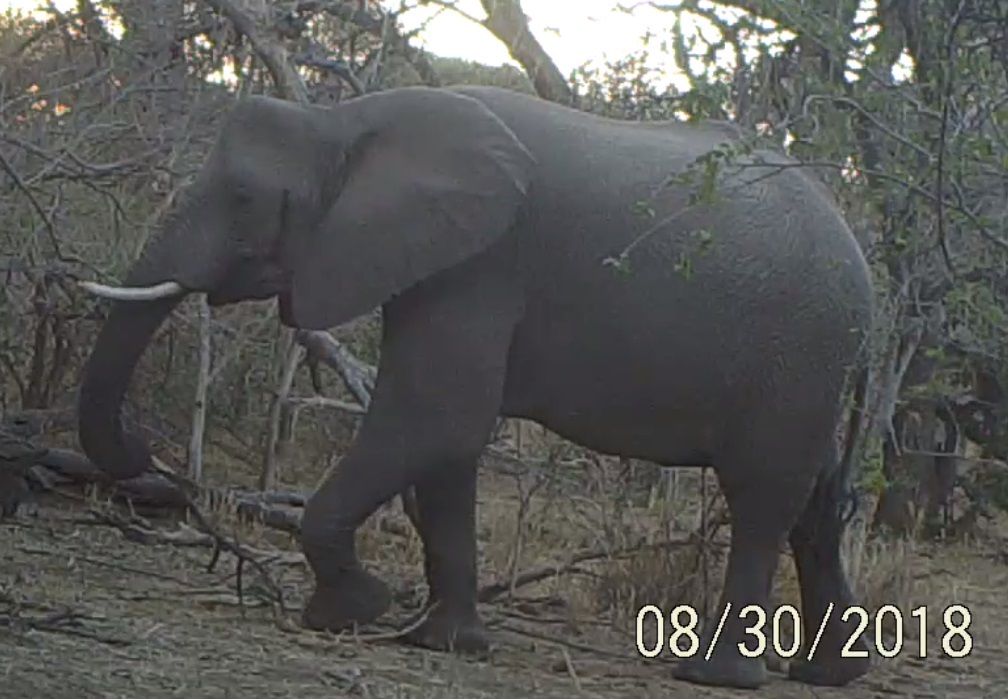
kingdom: Animalia
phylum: Chordata
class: Mammalia
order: Proboscidea
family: Elephantidae
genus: Loxodonta
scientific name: Loxodonta africana
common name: African elephant
